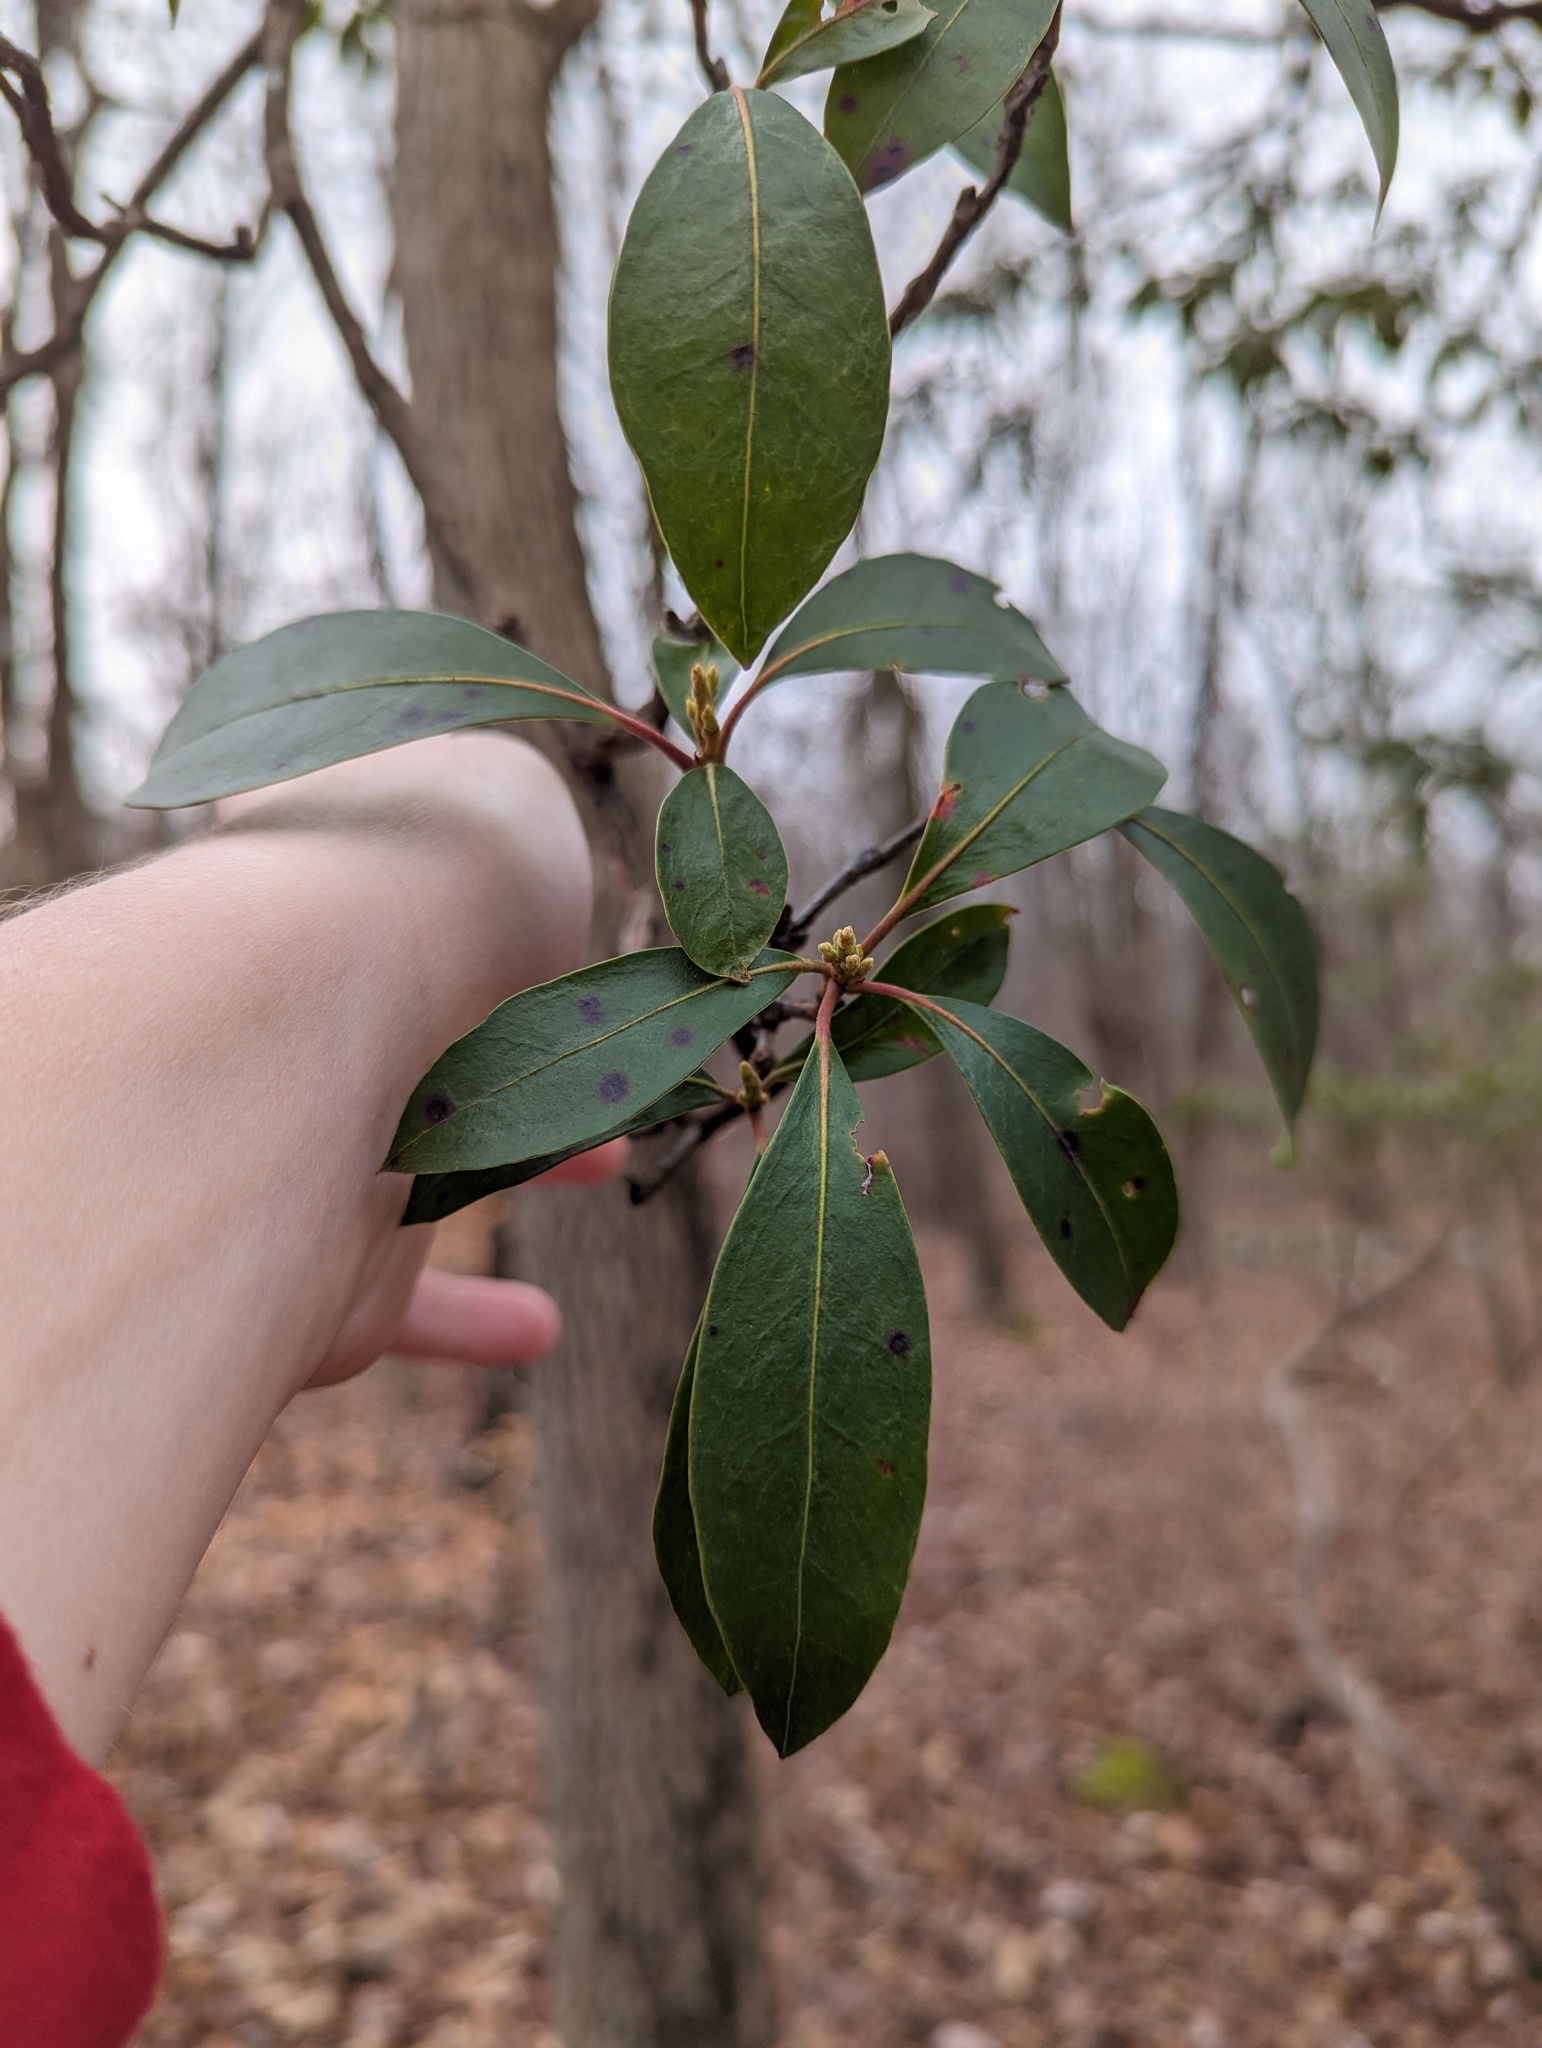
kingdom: Plantae
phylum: Tracheophyta
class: Magnoliopsida
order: Ericales
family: Ericaceae
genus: Kalmia
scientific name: Kalmia latifolia
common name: Mountain-laurel
